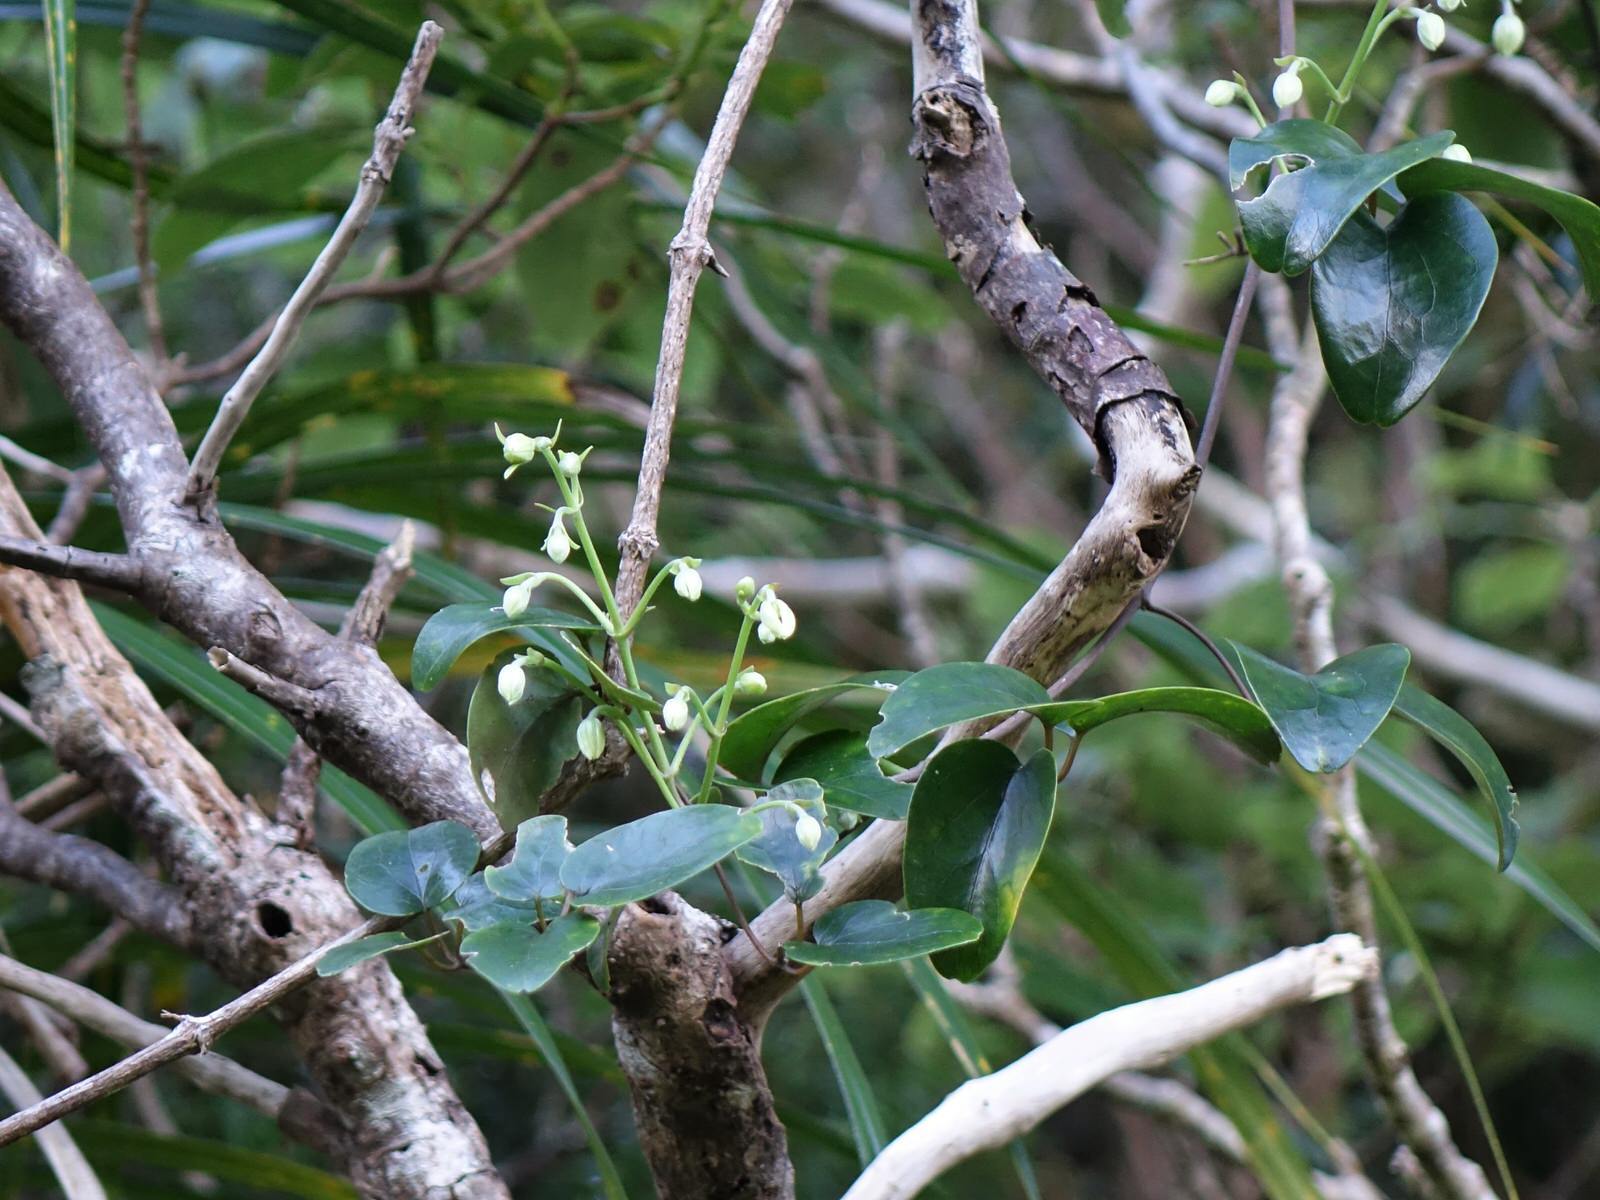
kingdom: Plantae
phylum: Tracheophyta
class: Magnoliopsida
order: Ranunculales
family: Ranunculaceae
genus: Clematis
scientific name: Clematis paniculata
